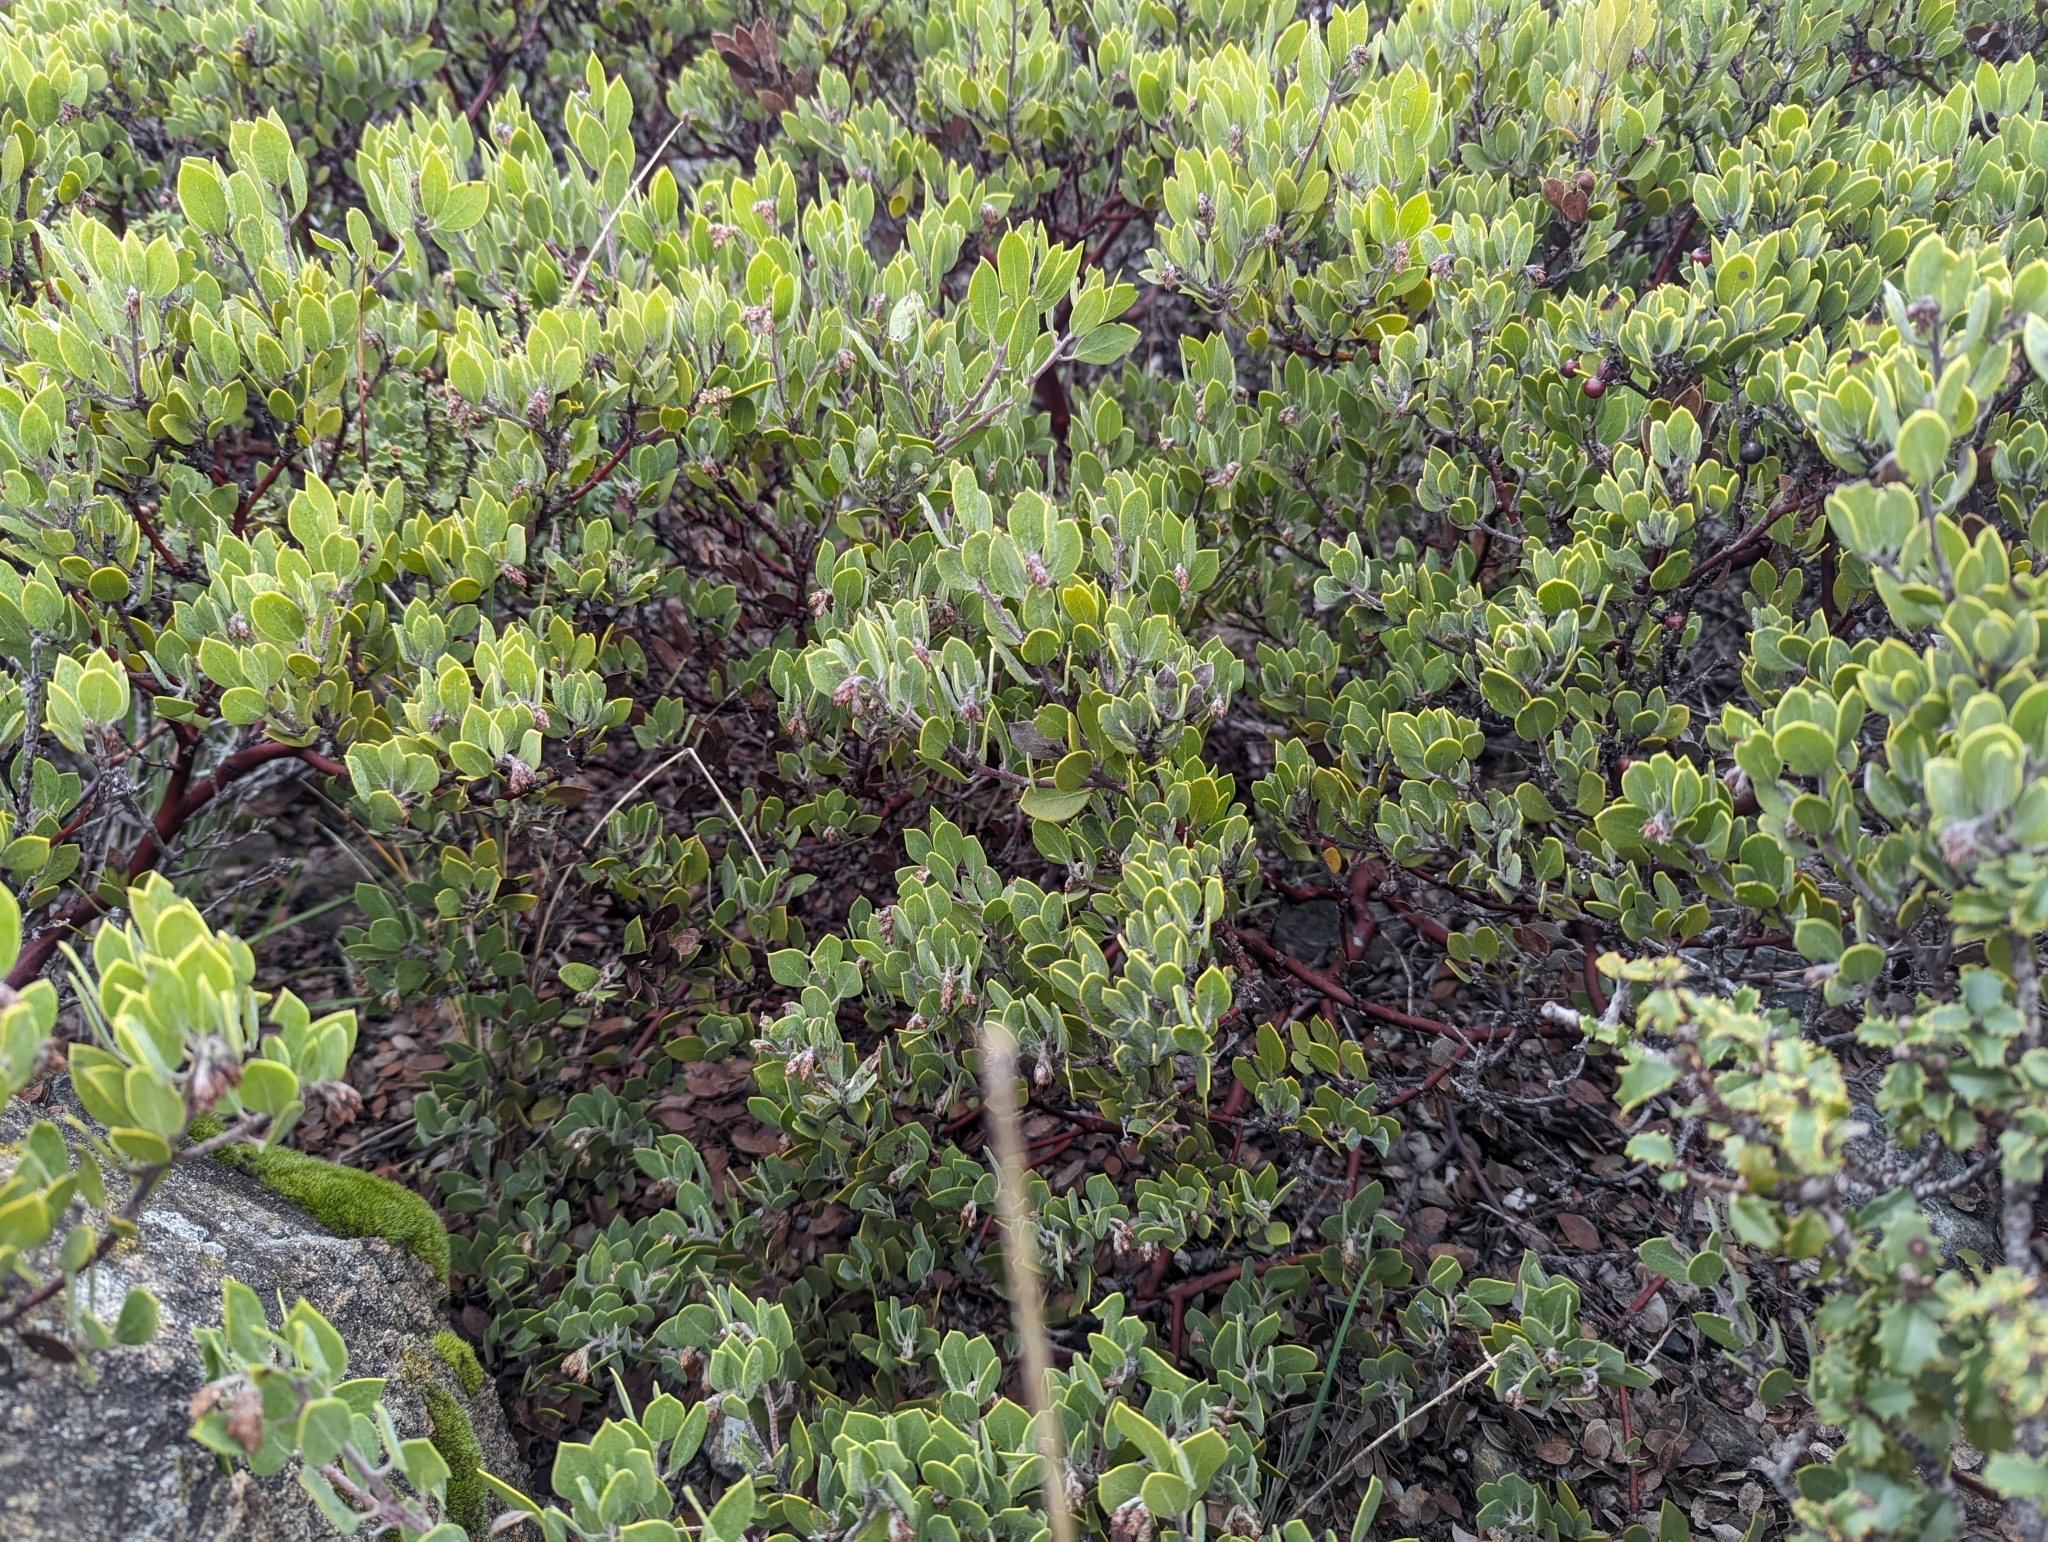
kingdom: Plantae
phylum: Tracheophyta
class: Magnoliopsida
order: Ericales
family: Ericaceae
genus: Arctostaphylos
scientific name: Arctostaphylos montana
